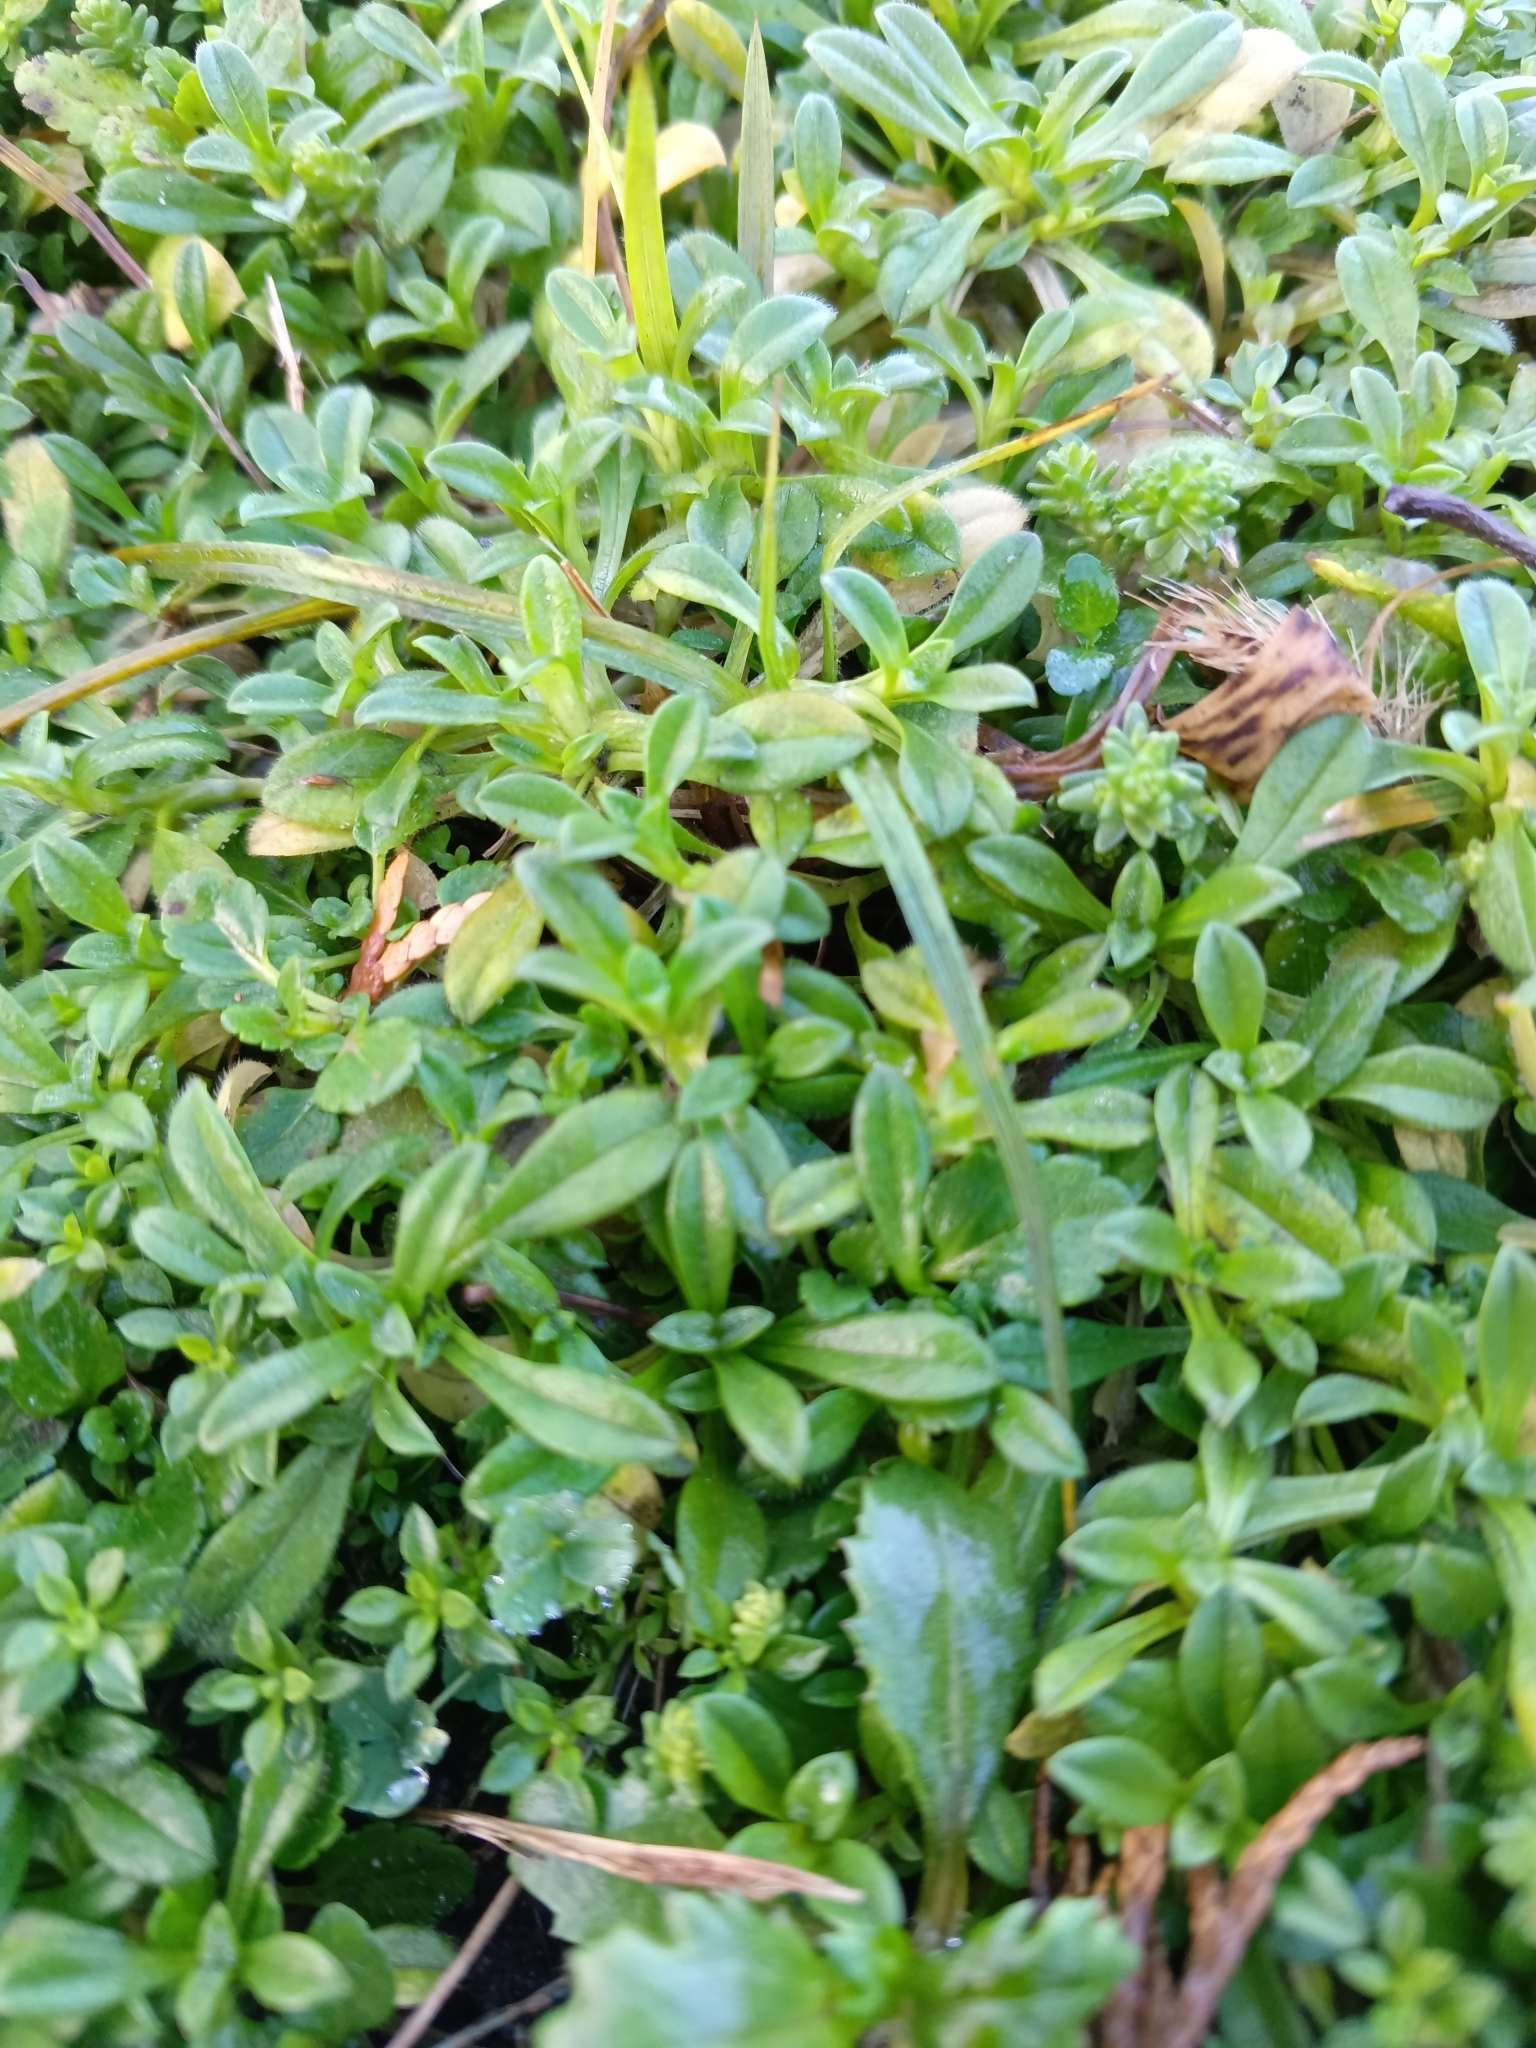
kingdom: Plantae
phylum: Tracheophyta
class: Magnoliopsida
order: Caryophyllales
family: Caryophyllaceae
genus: Cerastium
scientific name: Cerastium holosteoides
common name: Big chickweed
